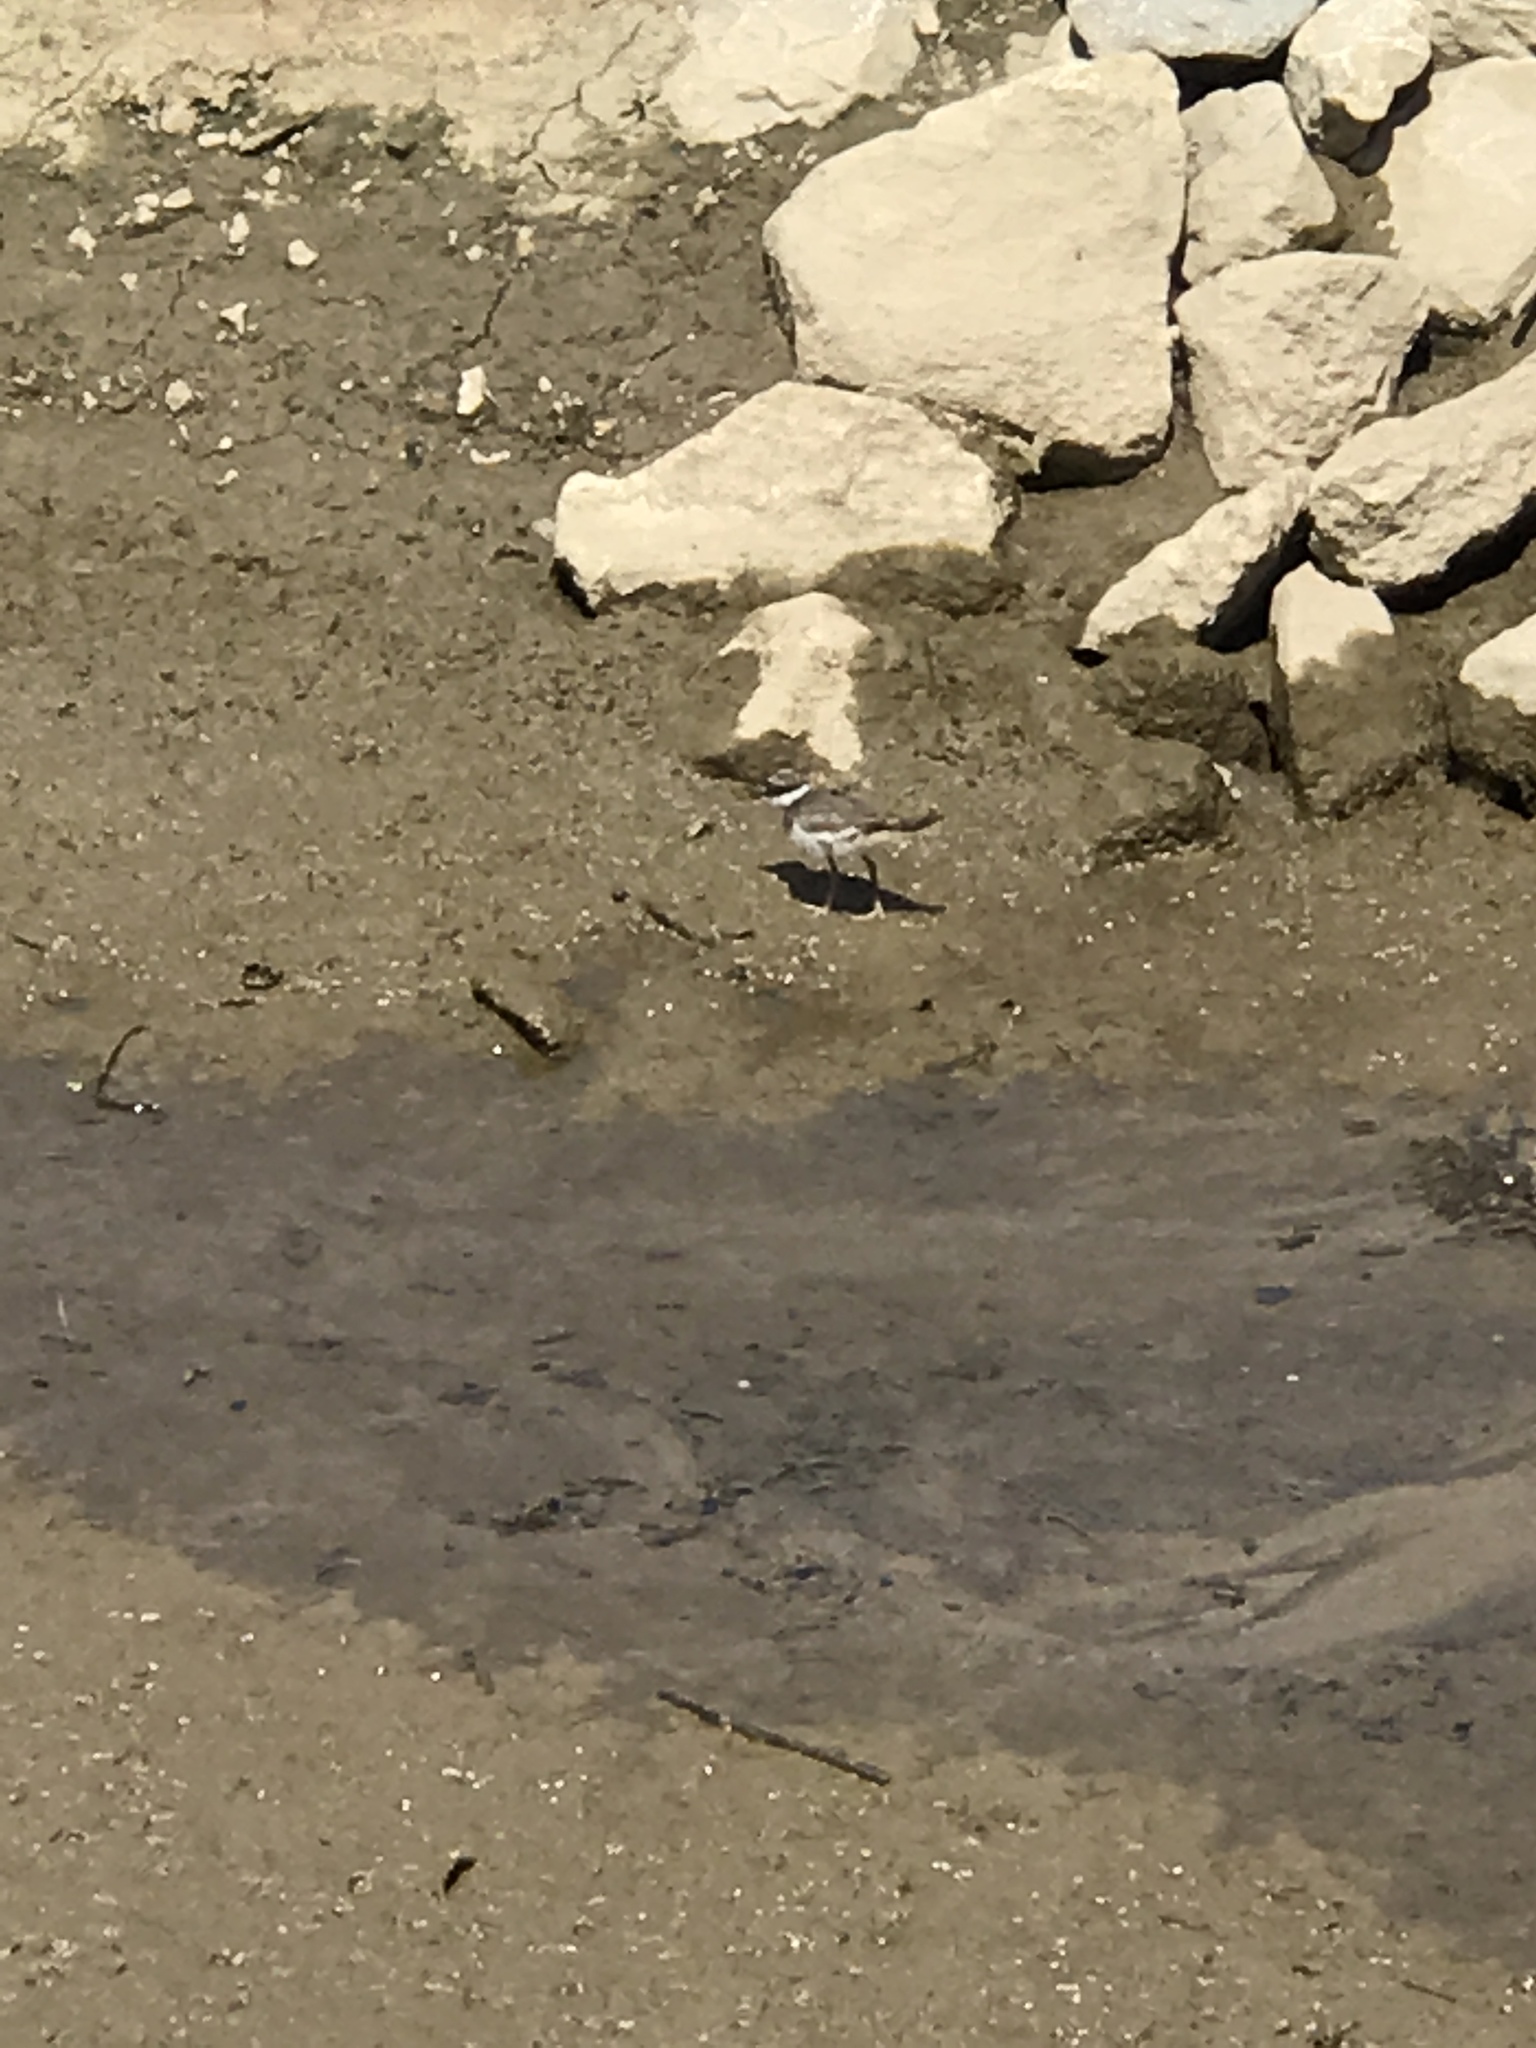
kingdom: Animalia
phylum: Chordata
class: Aves
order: Charadriiformes
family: Charadriidae
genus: Charadrius
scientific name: Charadrius vociferus
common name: Killdeer
